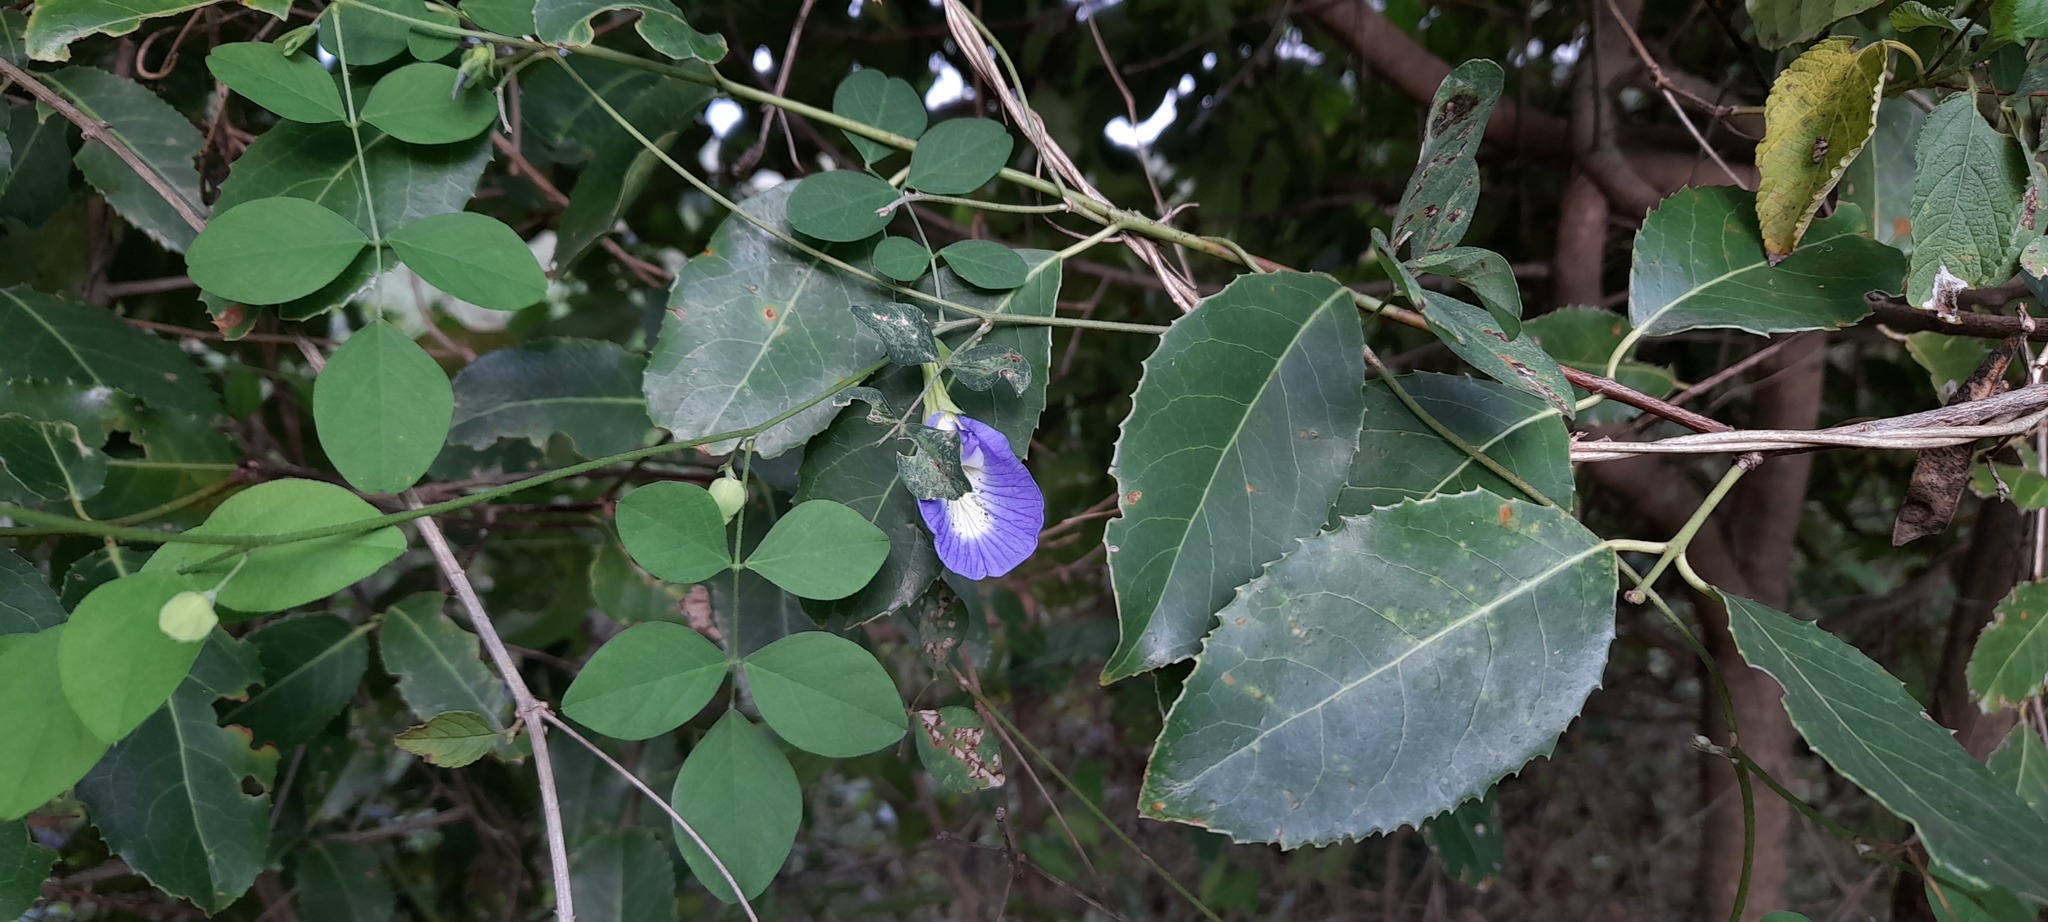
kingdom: Plantae
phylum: Tracheophyta
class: Magnoliopsida
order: Fabales
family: Fabaceae
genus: Clitoria
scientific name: Clitoria ternatea
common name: Asian pigeonwings
